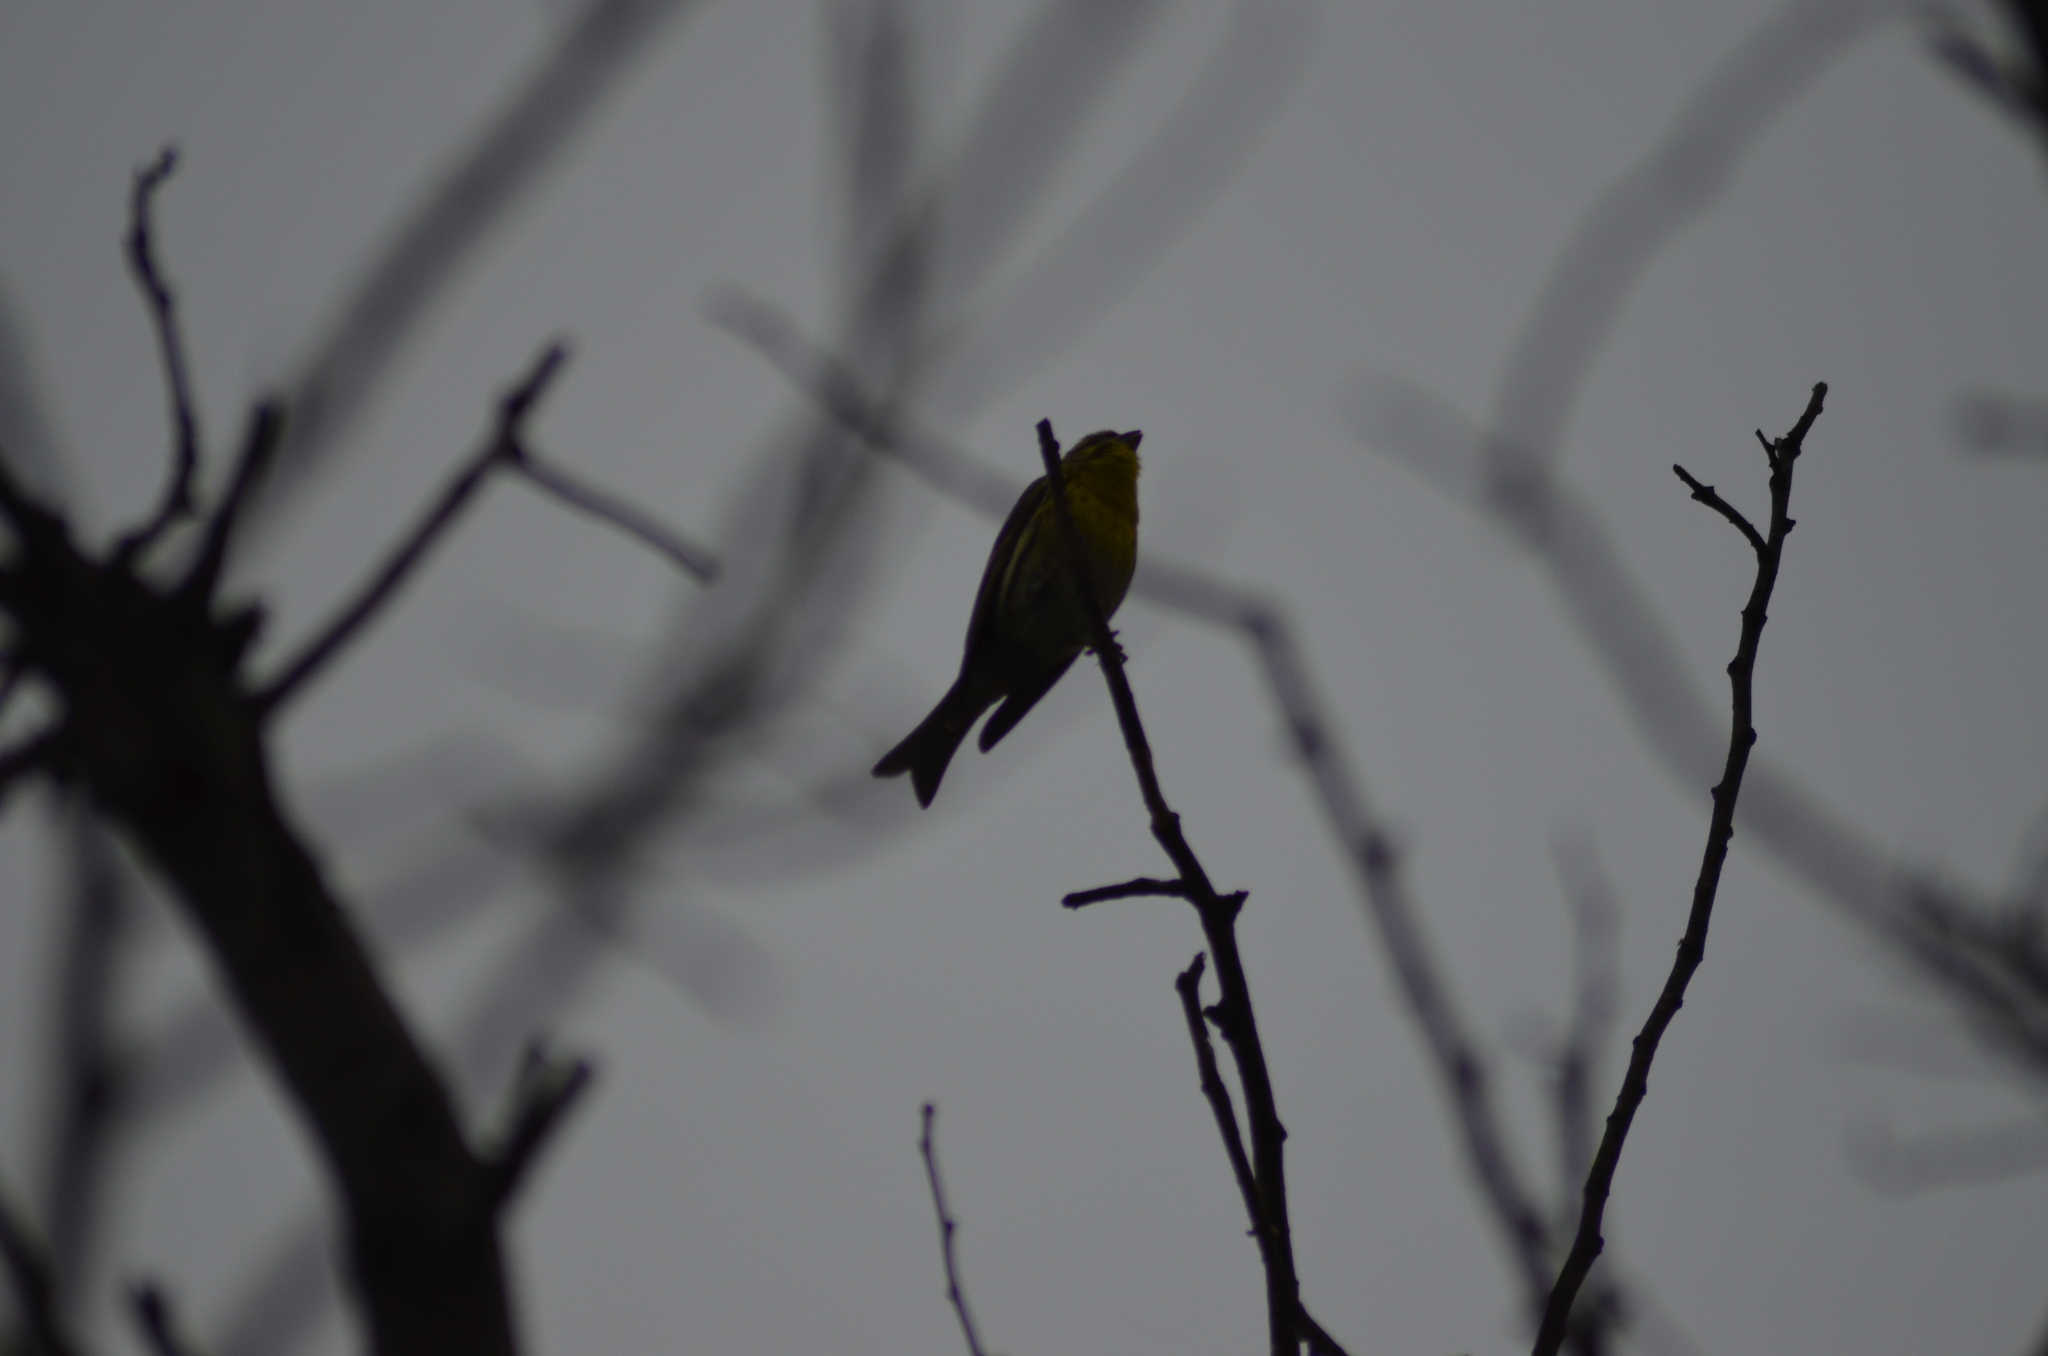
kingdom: Animalia
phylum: Chordata
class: Aves
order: Passeriformes
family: Fringillidae
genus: Serinus
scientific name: Serinus serinus
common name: European serin
